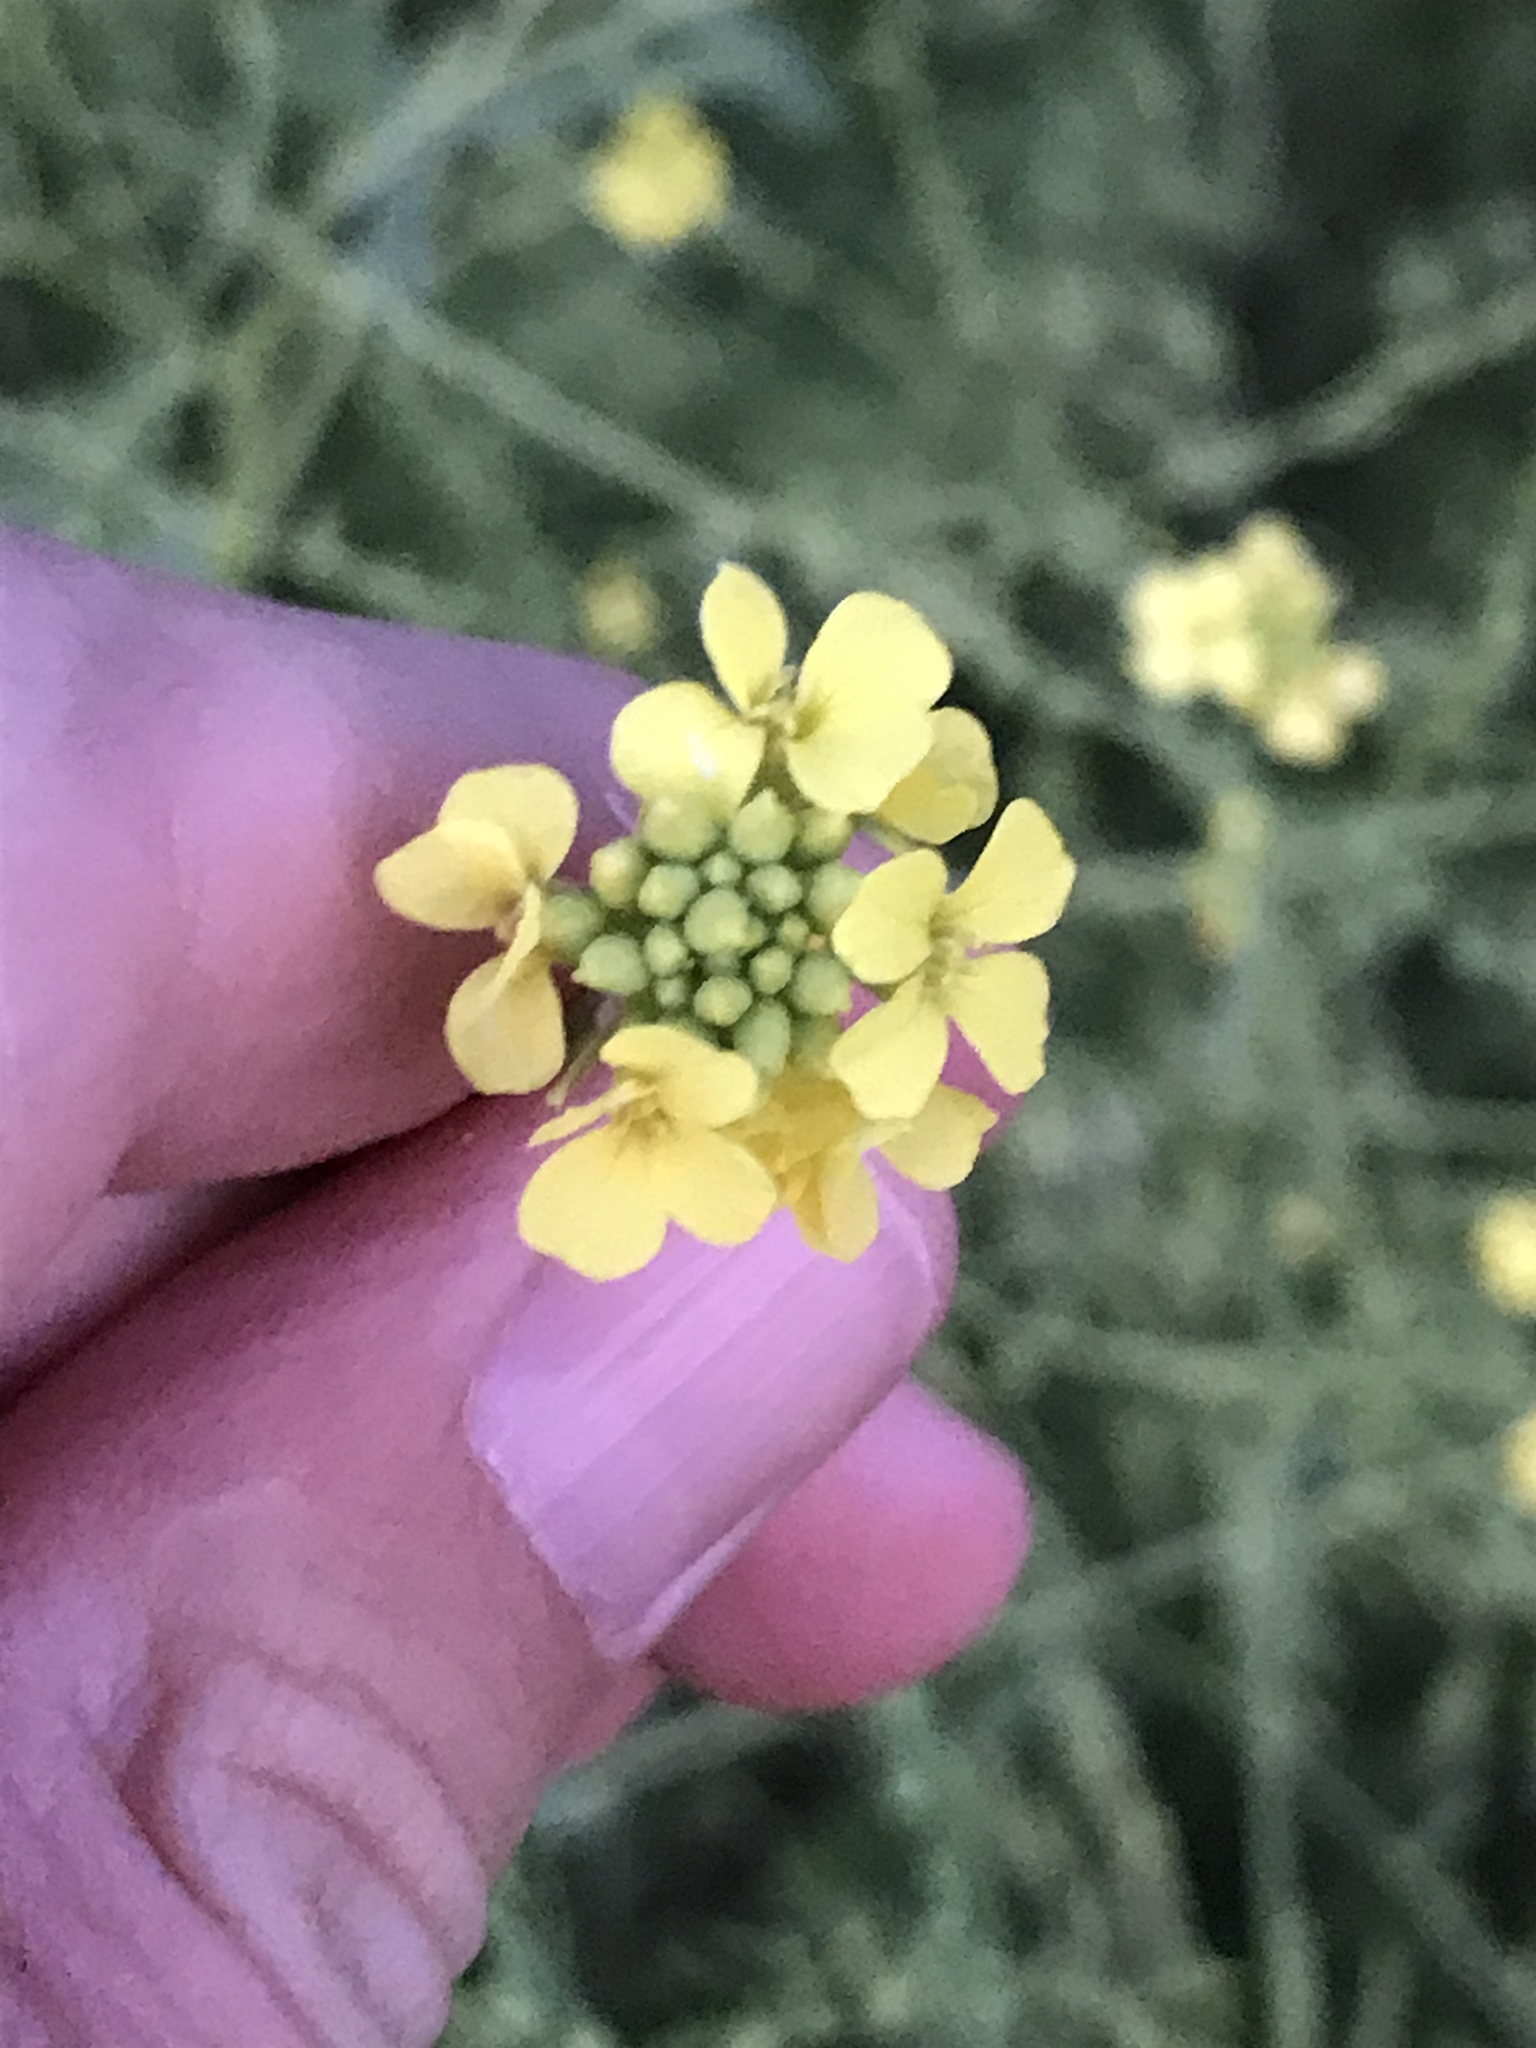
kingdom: Plantae
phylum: Tracheophyta
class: Magnoliopsida
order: Brassicales
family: Brassicaceae
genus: Rapistrum
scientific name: Rapistrum rugosum
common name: Annual bastardcabbage
